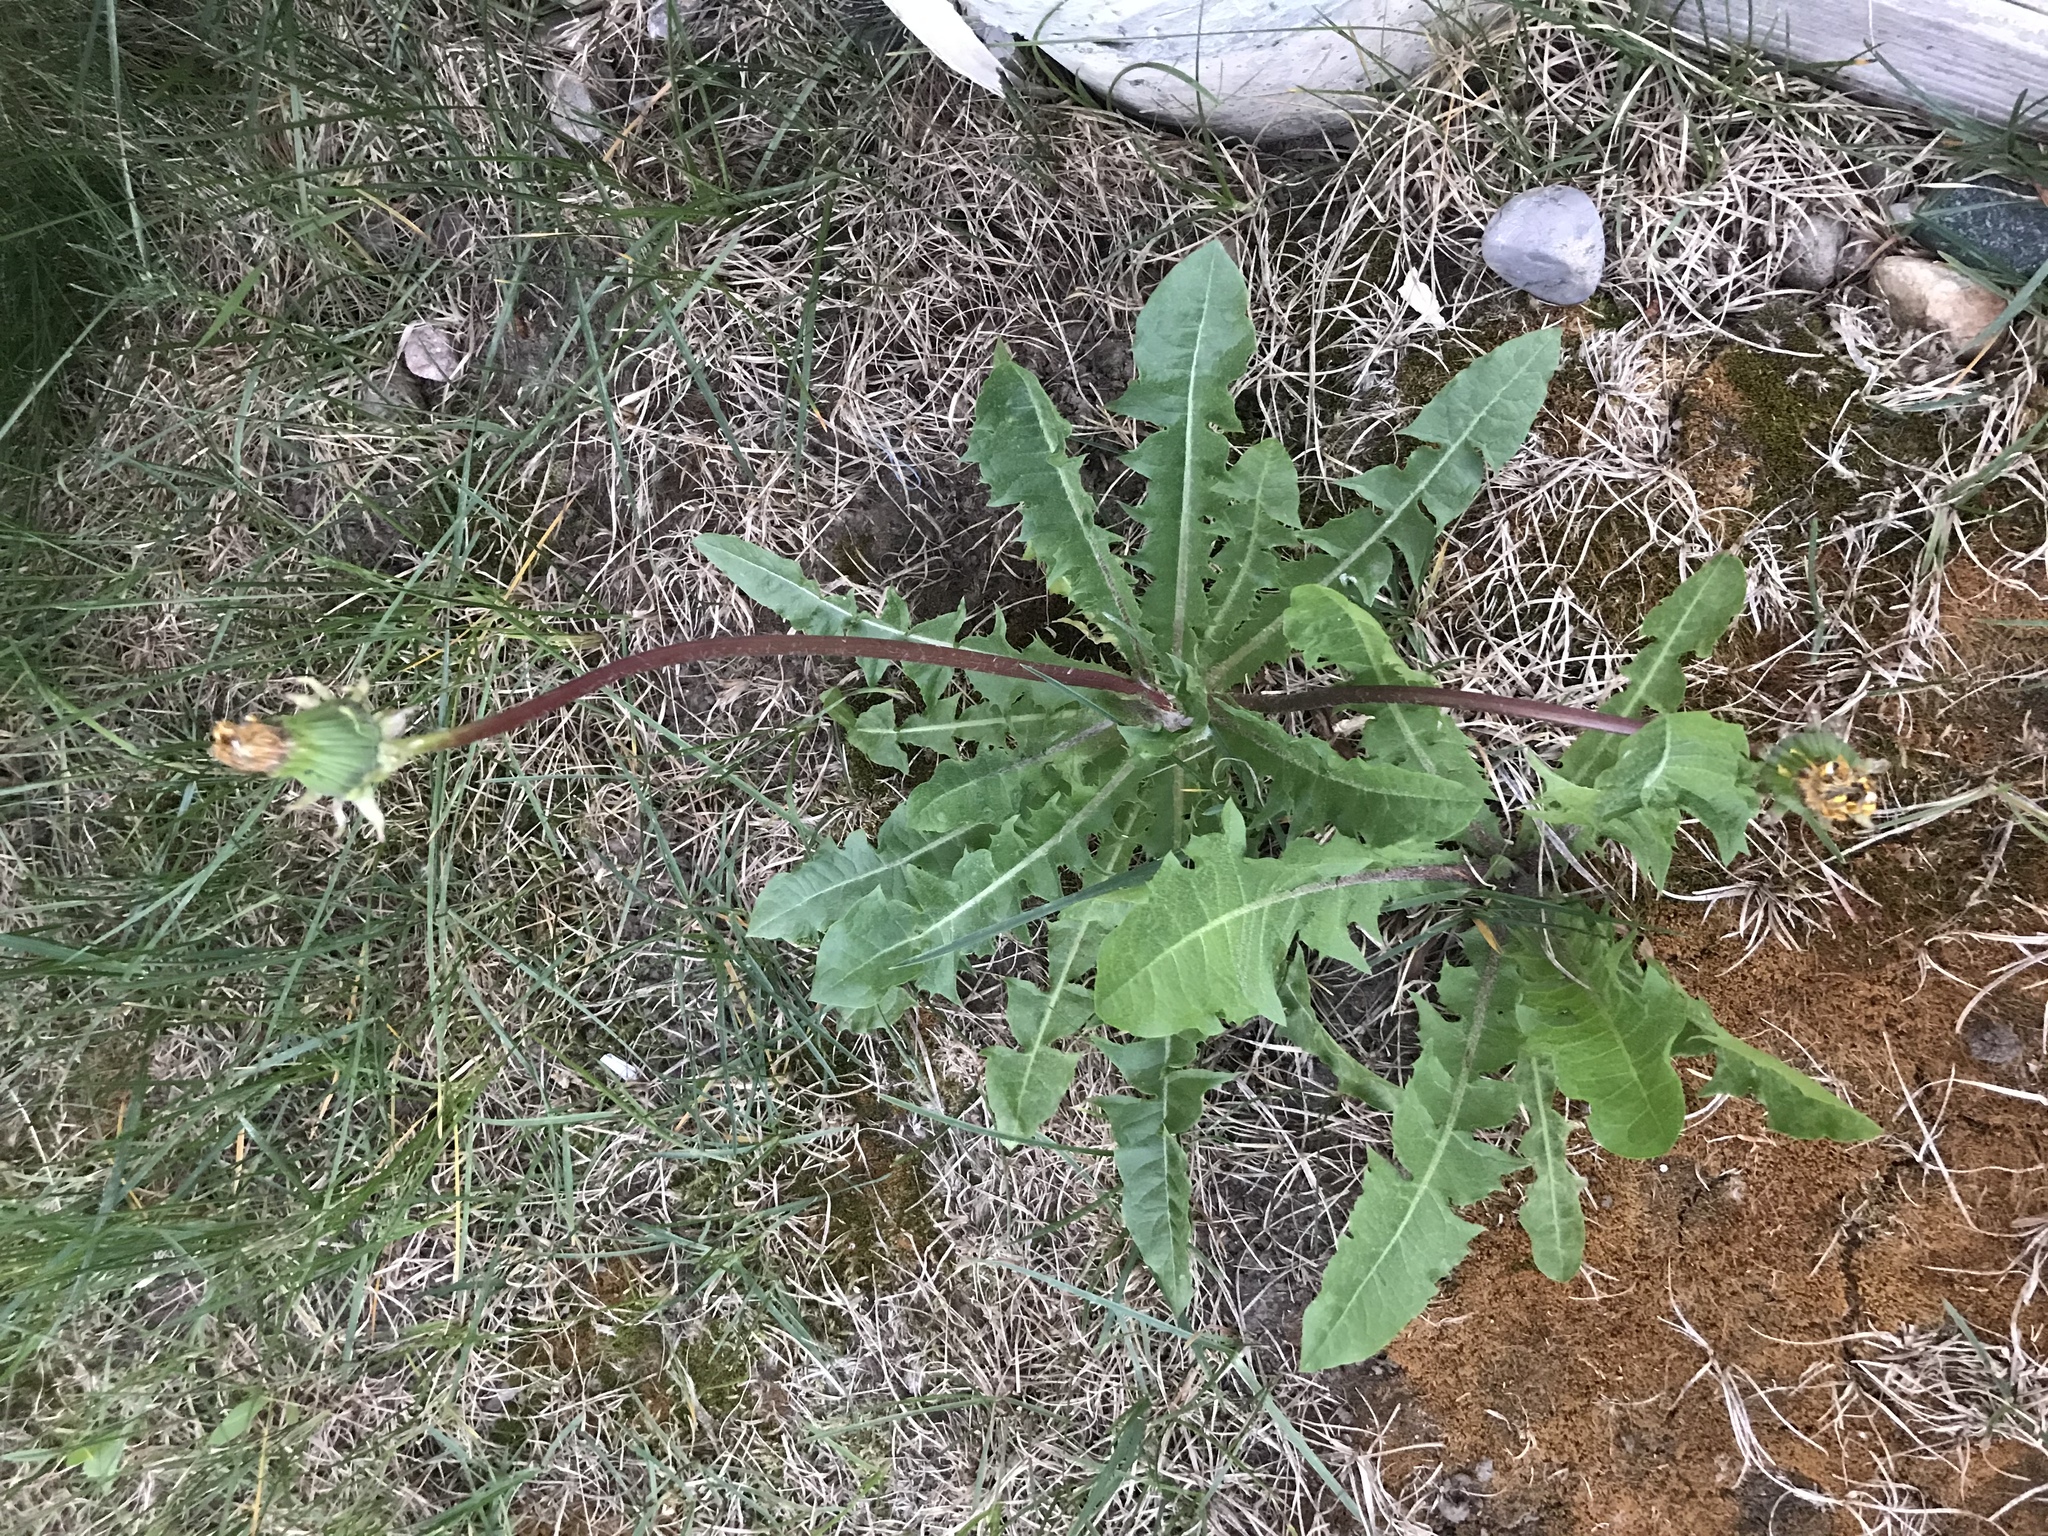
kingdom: Plantae
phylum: Tracheophyta
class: Magnoliopsida
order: Asterales
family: Asteraceae
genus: Taraxacum
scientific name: Taraxacum officinale
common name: Common dandelion
